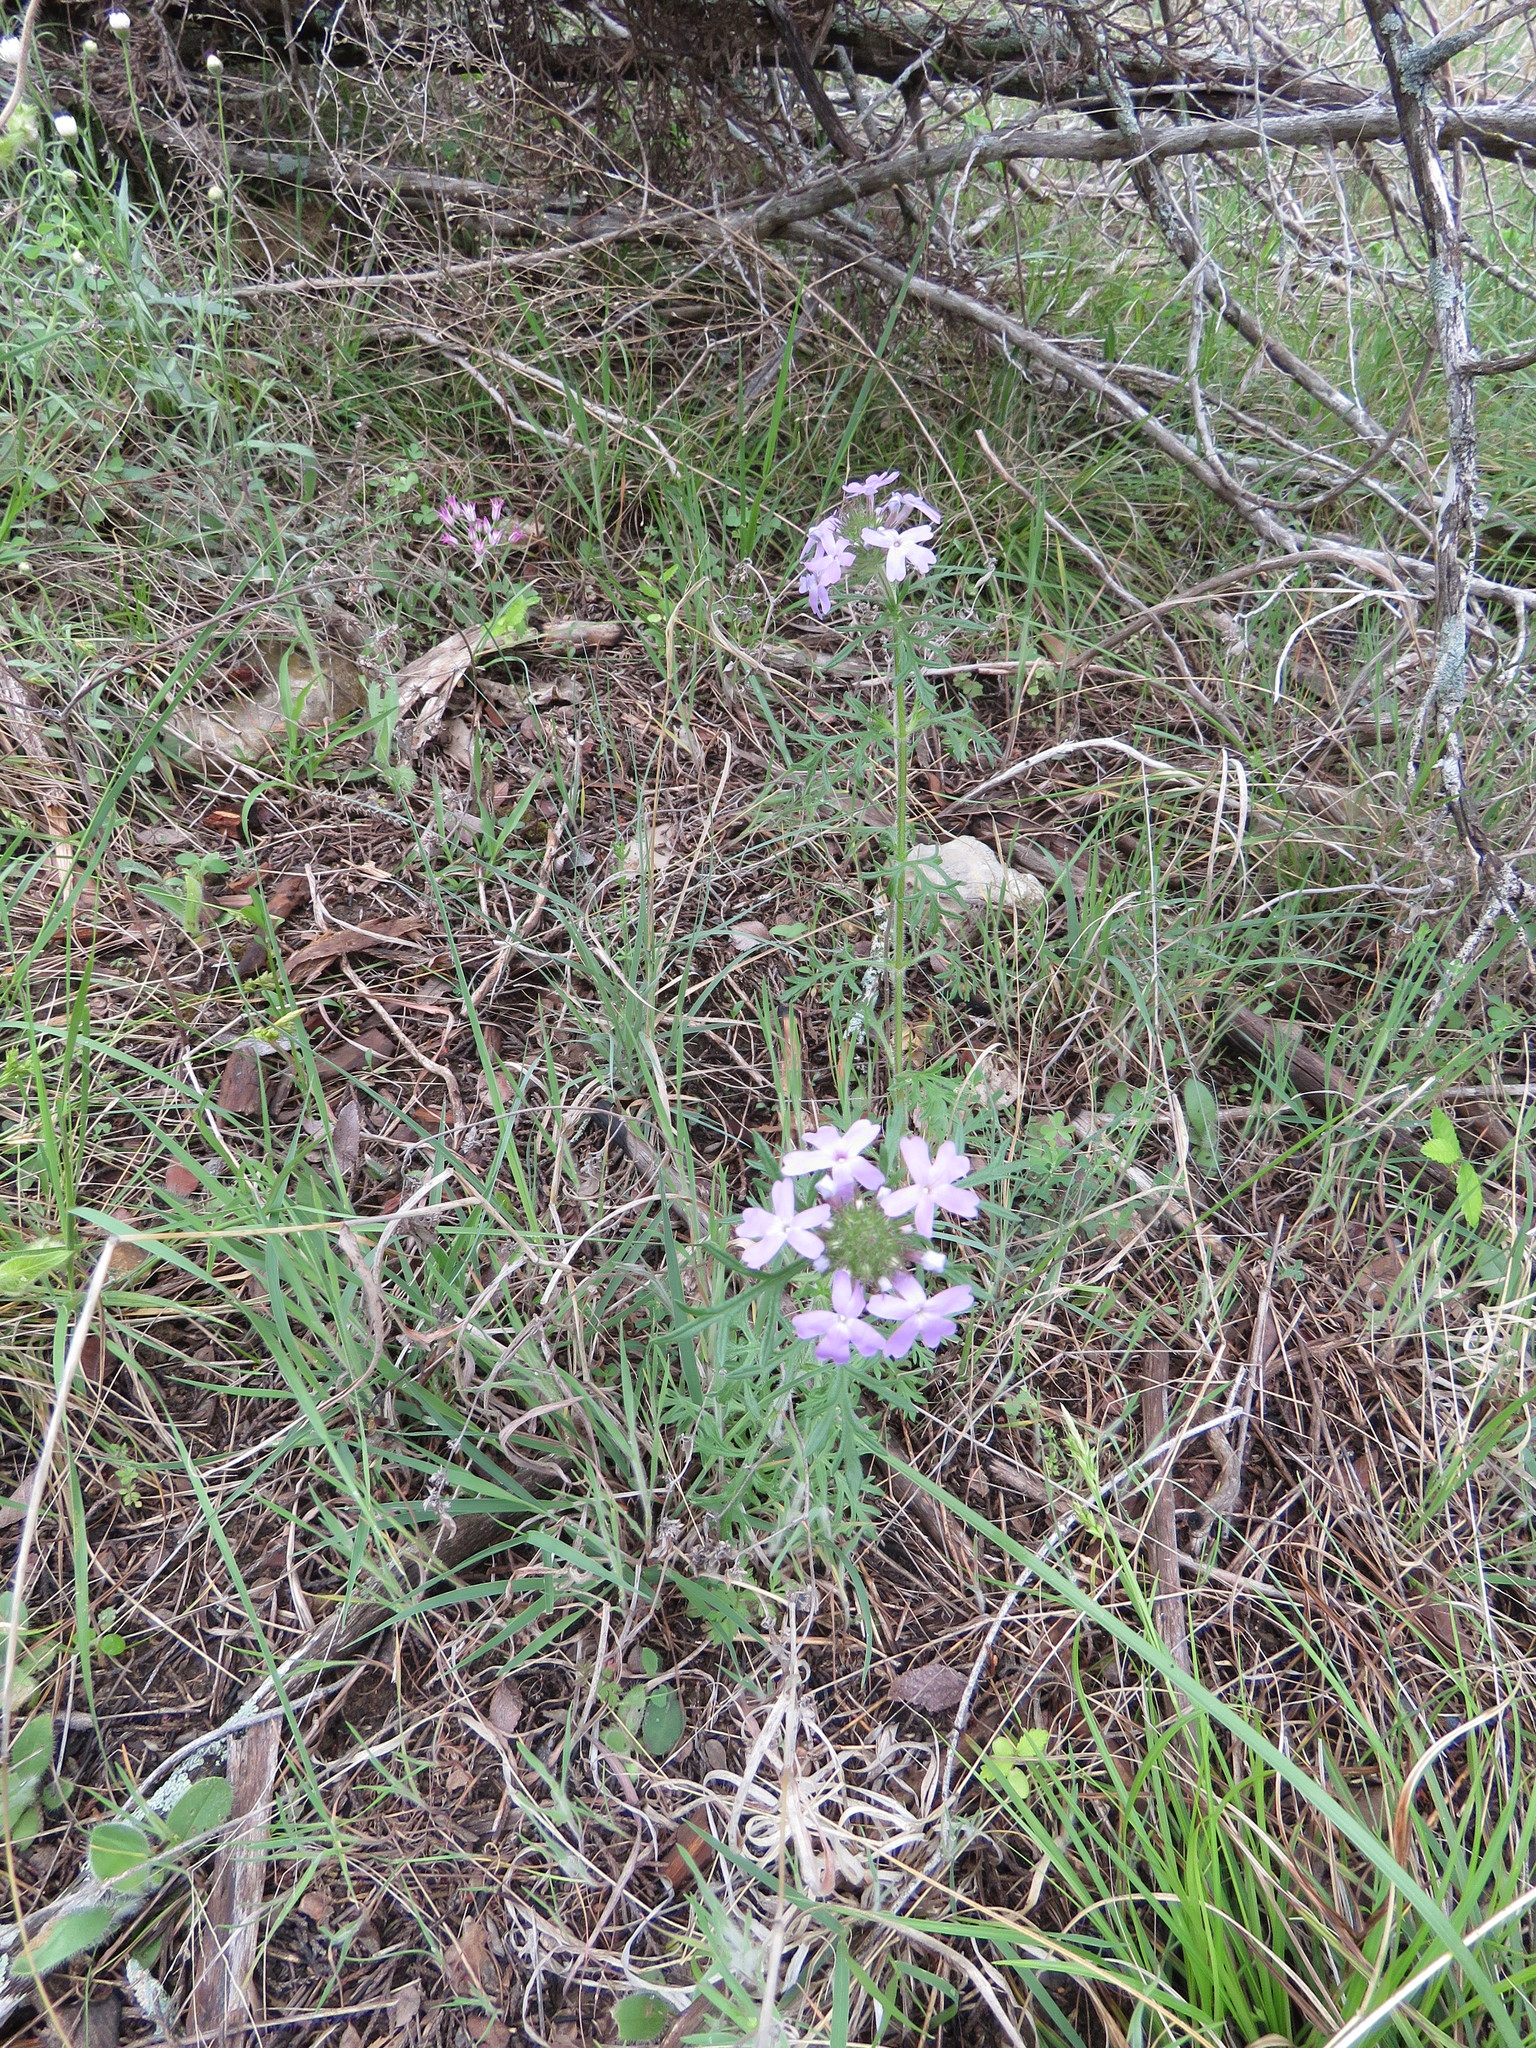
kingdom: Plantae
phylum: Tracheophyta
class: Magnoliopsida
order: Lamiales
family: Verbenaceae
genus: Verbena
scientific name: Verbena bipinnatifida
